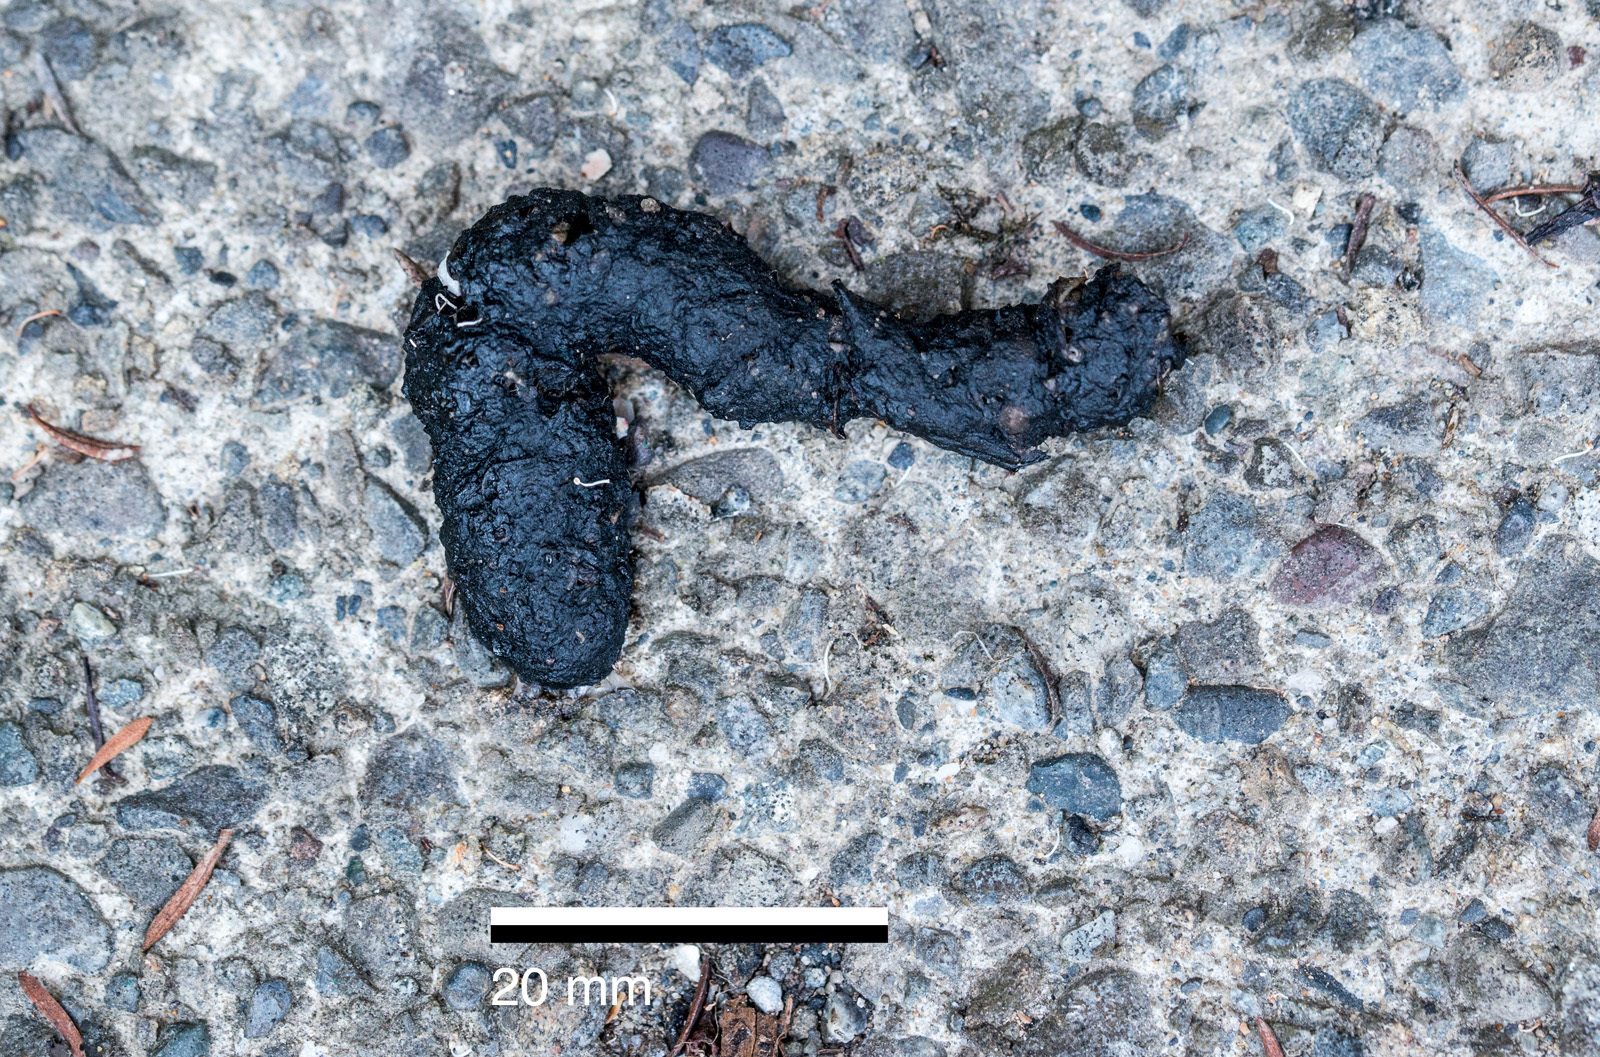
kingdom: Animalia
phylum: Chordata
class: Mammalia
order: Erinaceomorpha
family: Erinaceidae
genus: Erinaceus
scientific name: Erinaceus europaeus
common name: West european hedgehog
